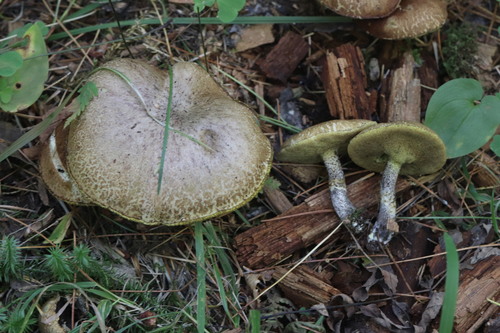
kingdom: Fungi
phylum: Basidiomycota
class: Agaricomycetes
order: Boletales
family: Suillaceae
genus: Suillus
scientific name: Suillus acidus
